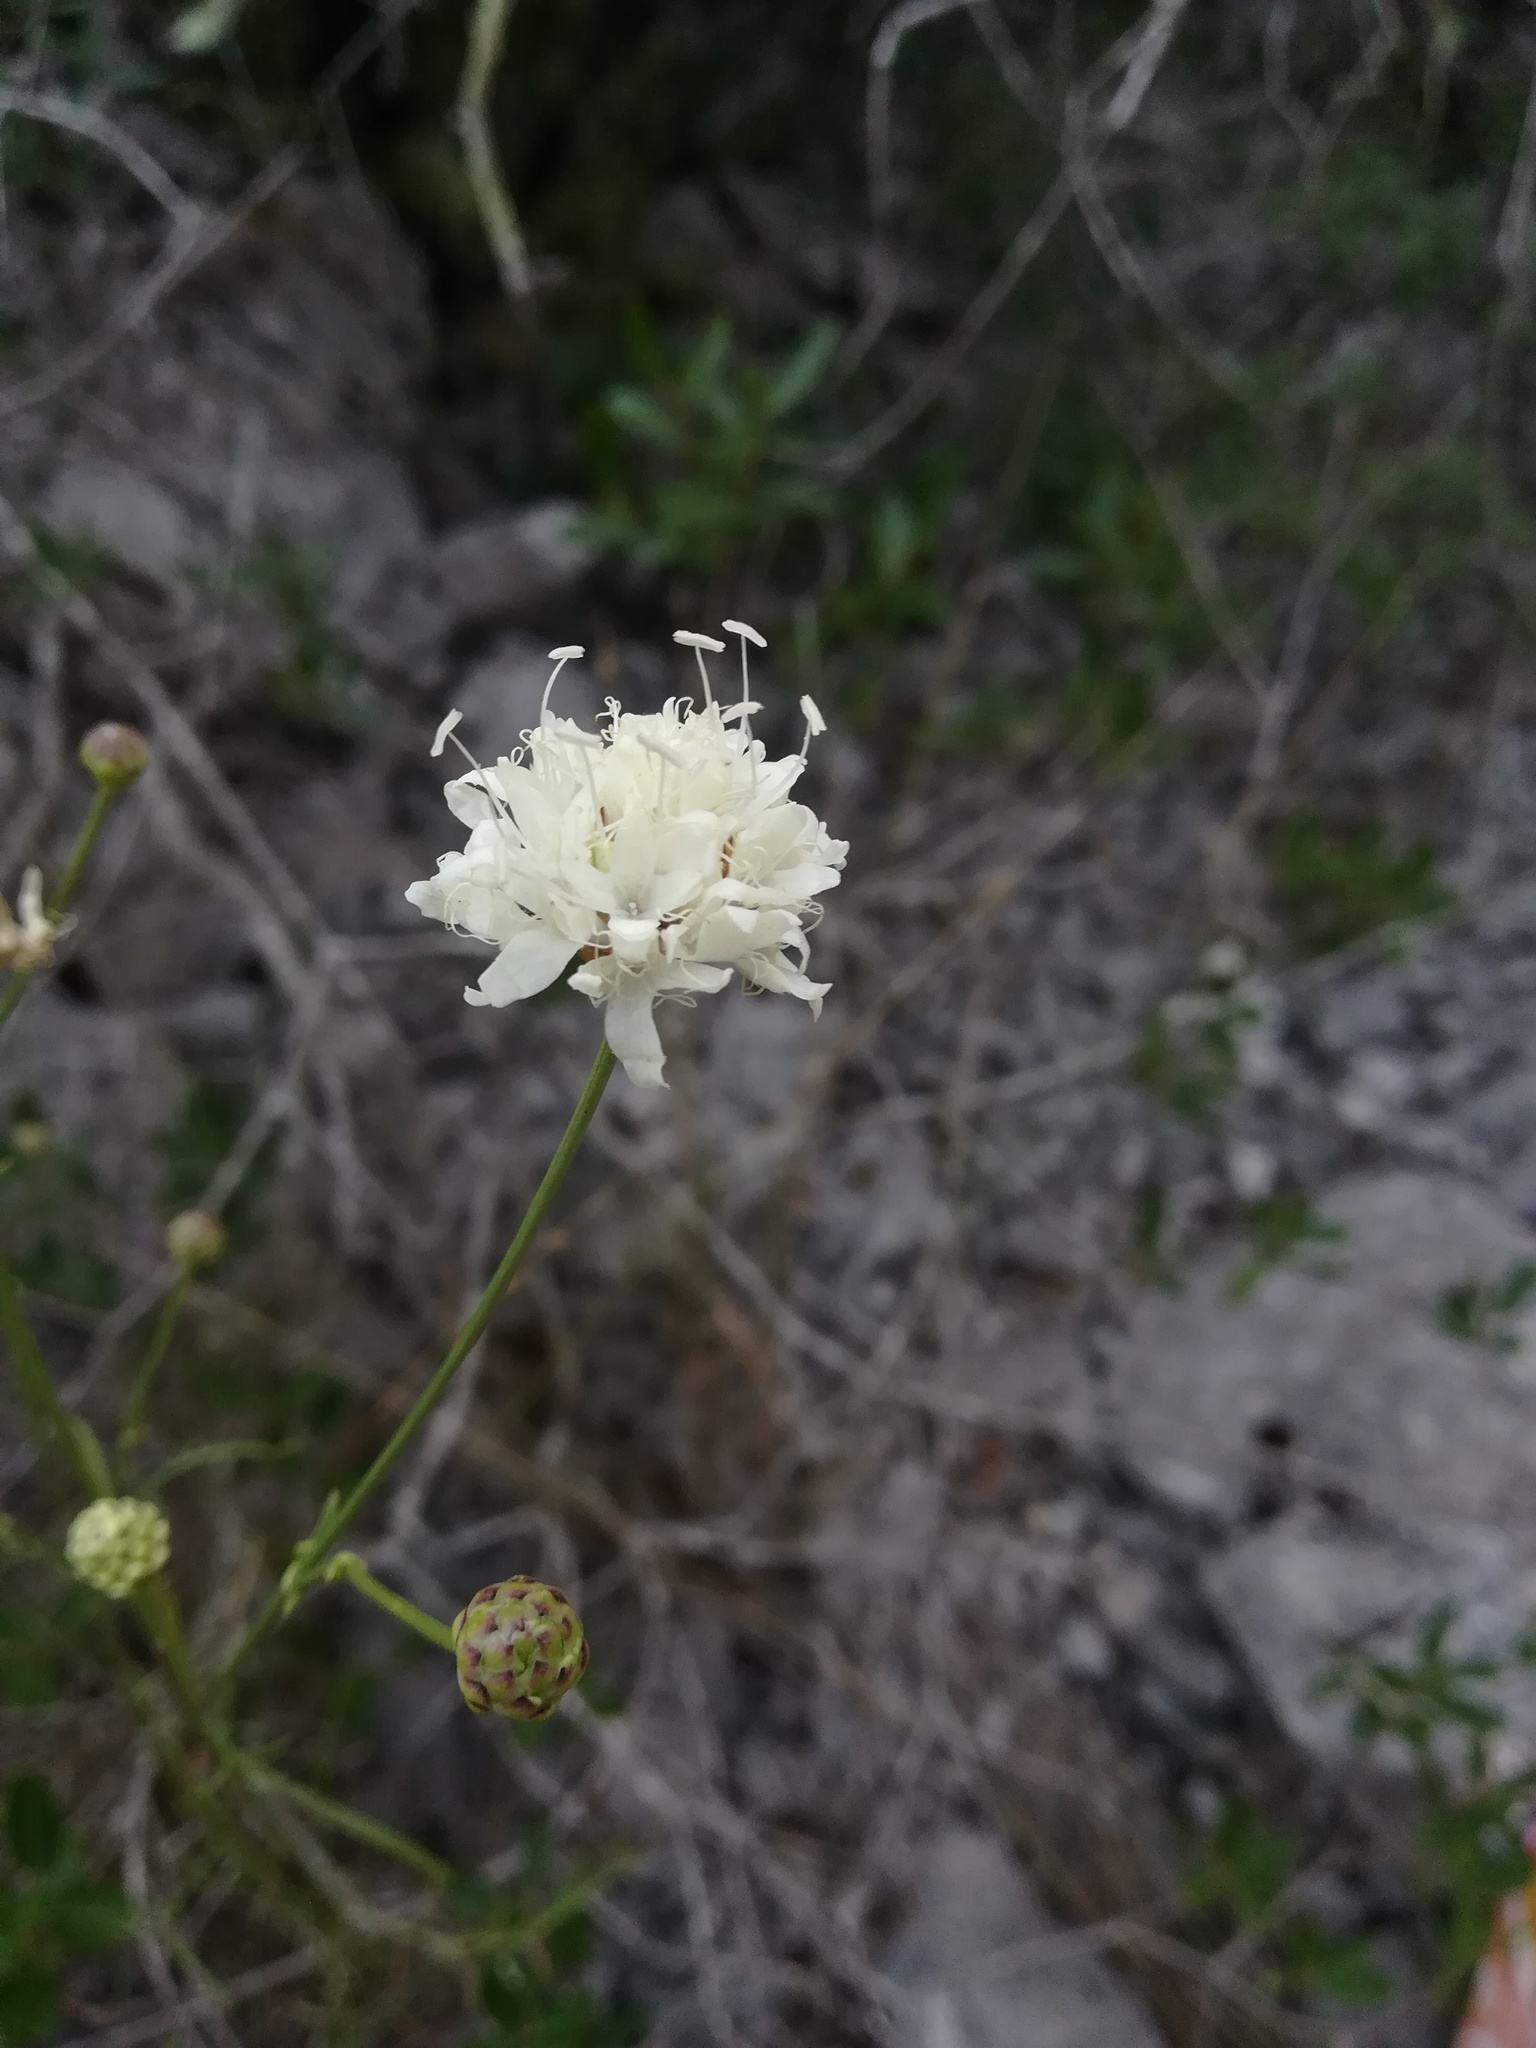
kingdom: Plantae
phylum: Tracheophyta
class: Magnoliopsida
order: Dipsacales
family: Caprifoliaceae
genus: Cephalaria
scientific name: Cephalaria leucantha
